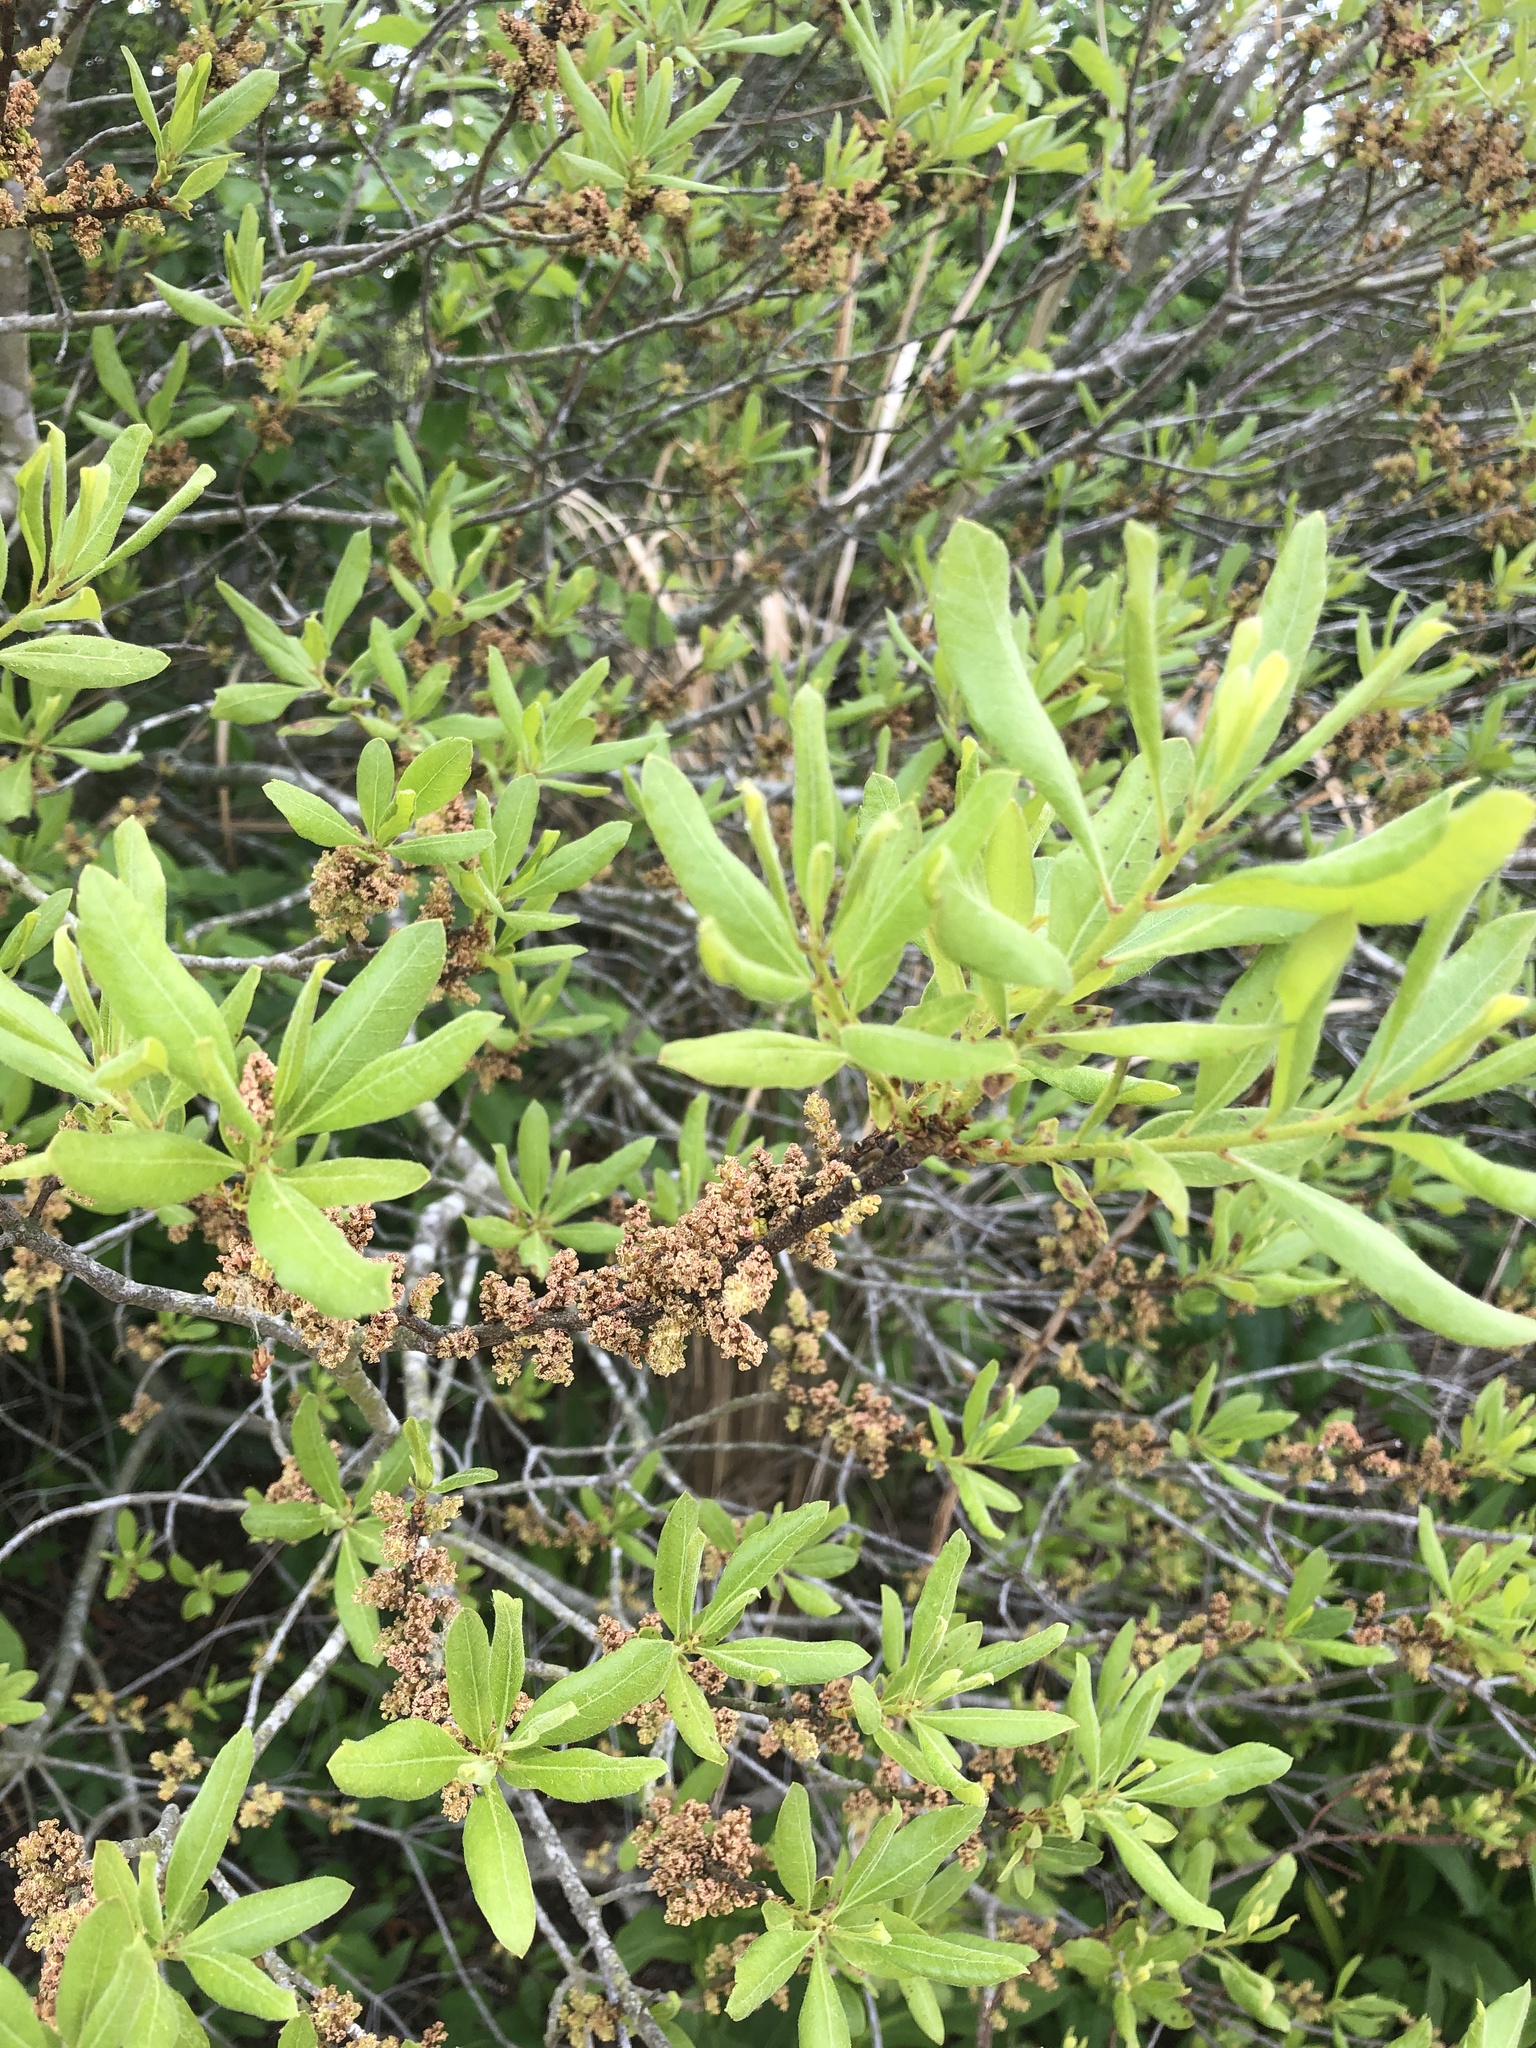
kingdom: Plantae
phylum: Tracheophyta
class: Magnoliopsida
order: Fagales
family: Myricaceae
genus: Morella
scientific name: Morella pensylvanica
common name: Northern bayberry
